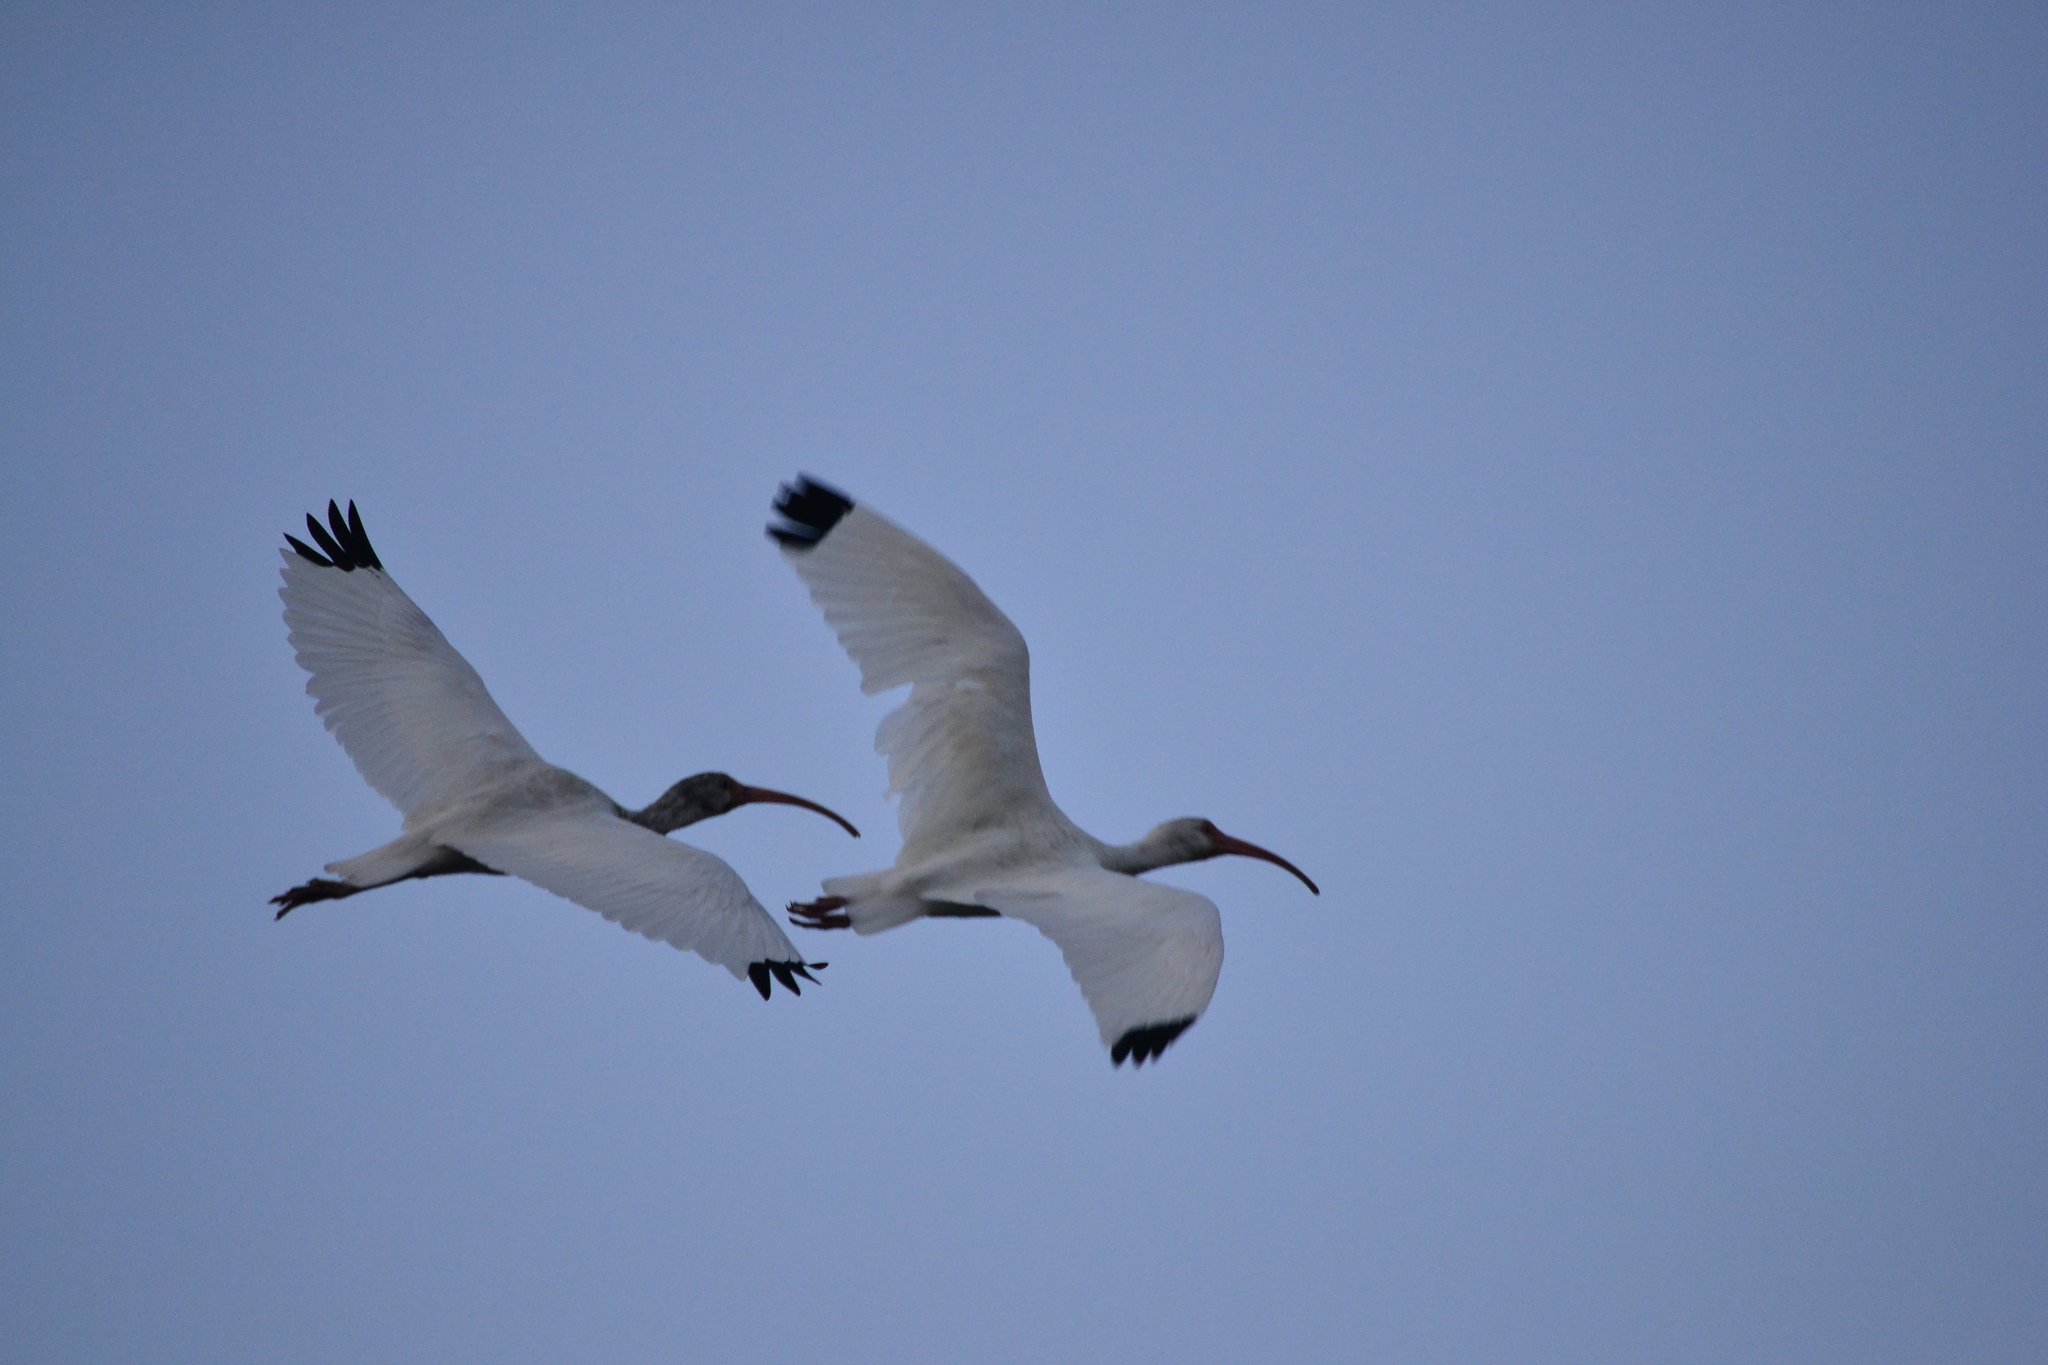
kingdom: Animalia
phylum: Chordata
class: Aves
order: Pelecaniformes
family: Threskiornithidae
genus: Eudocimus
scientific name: Eudocimus albus
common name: White ibis
